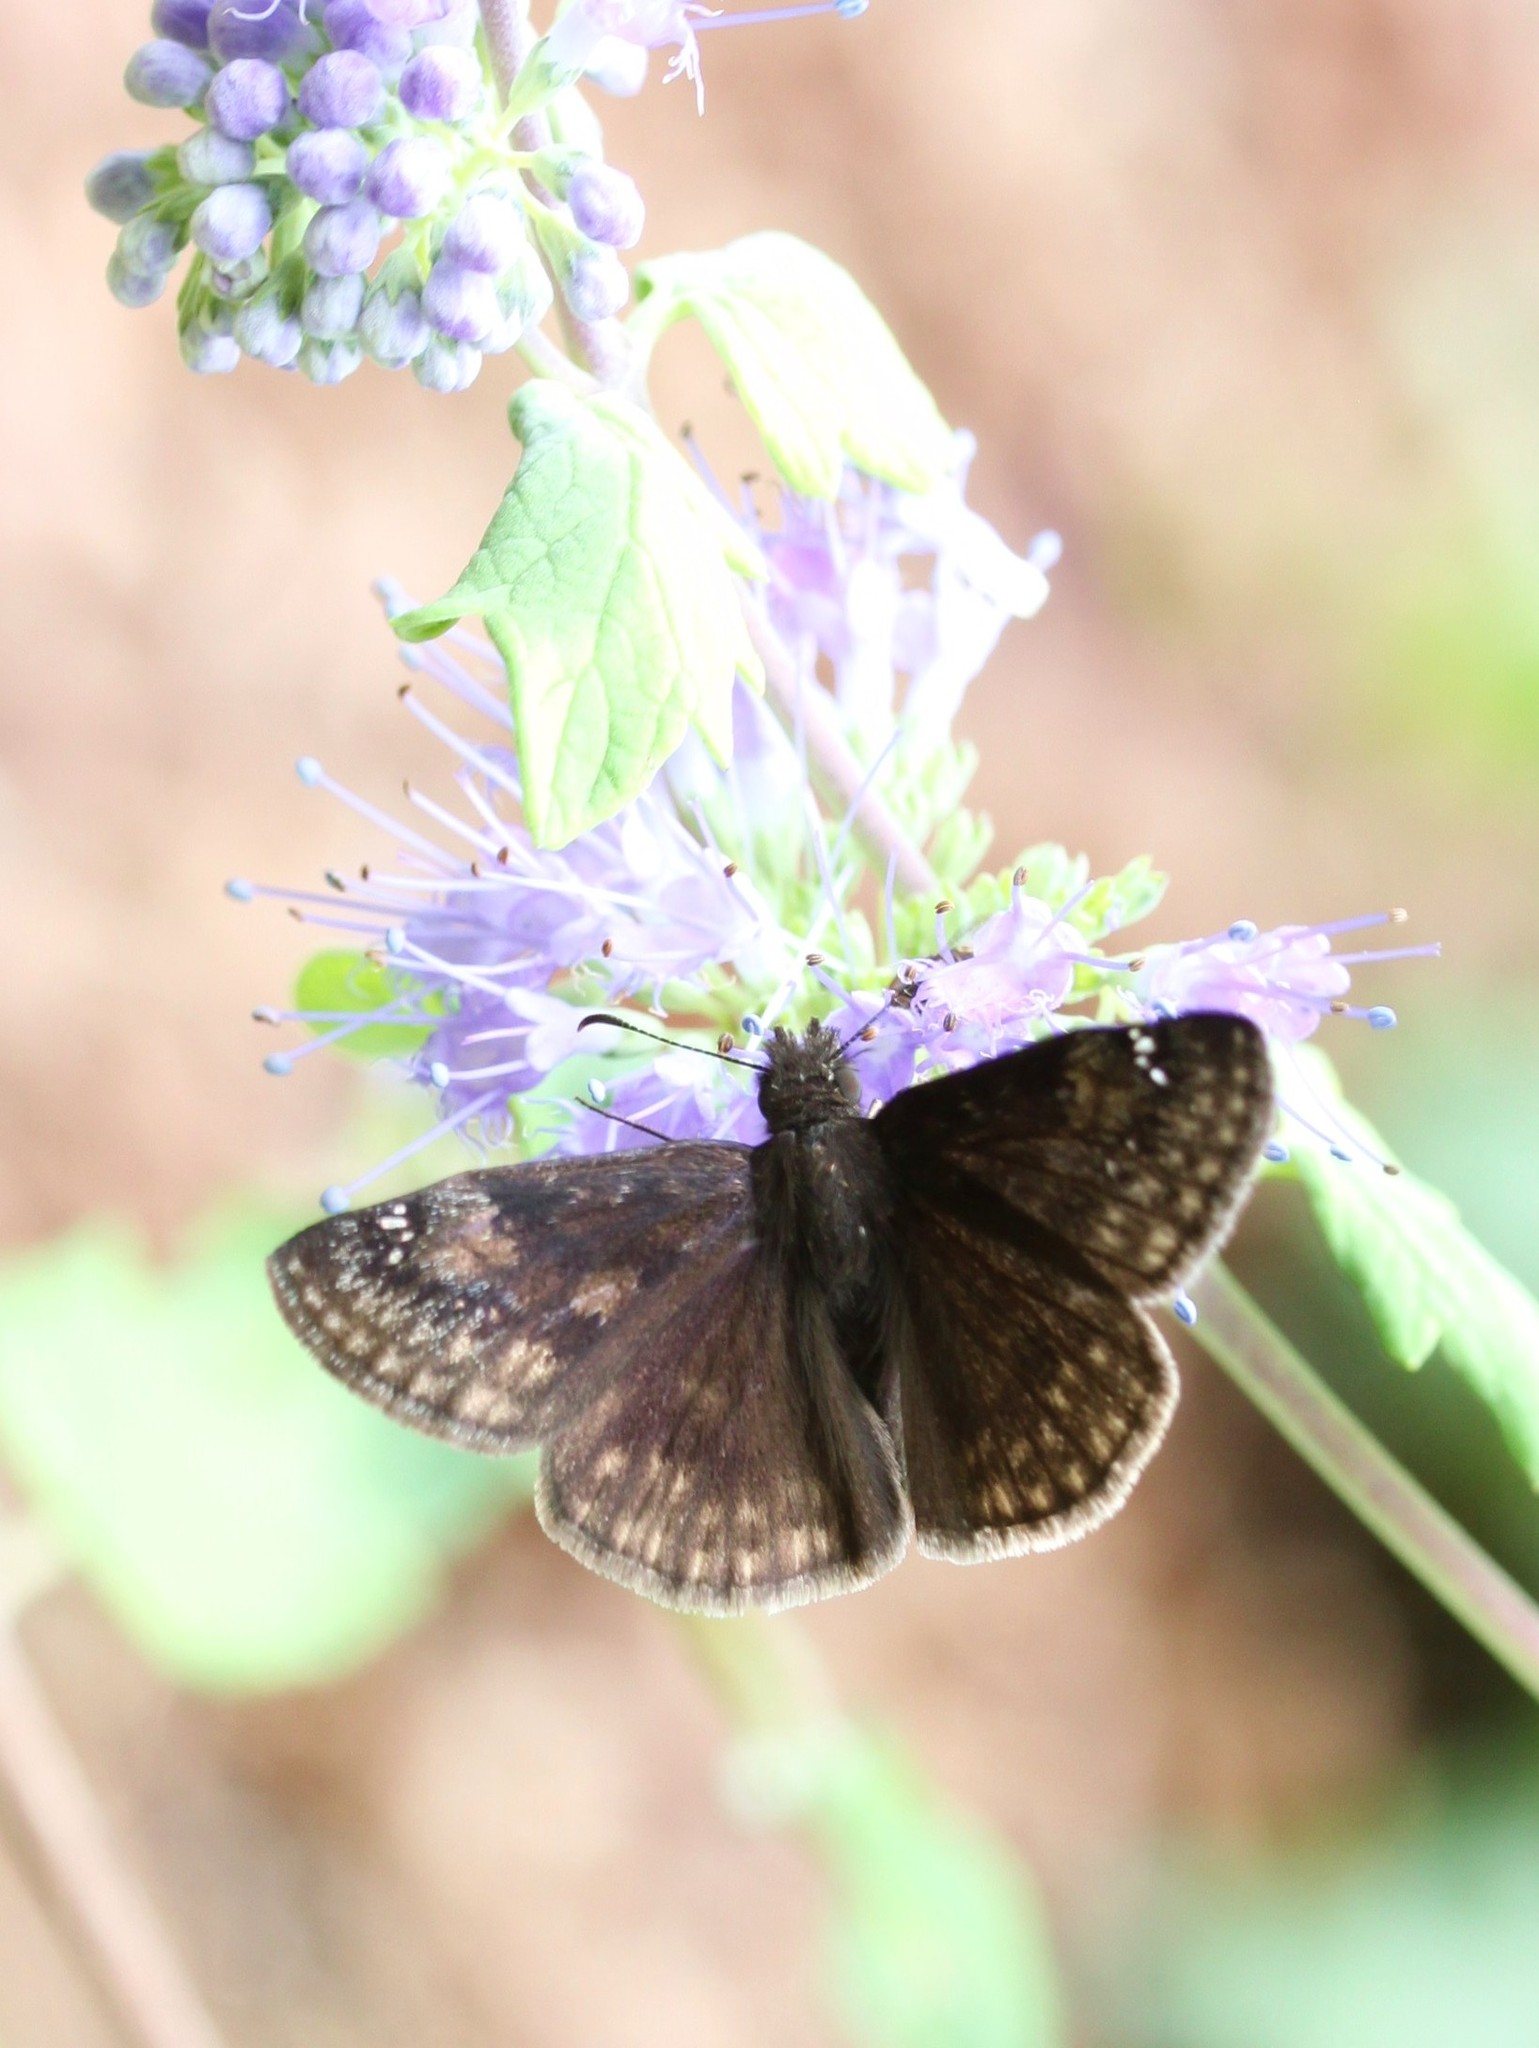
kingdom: Animalia
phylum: Arthropoda
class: Insecta
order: Lepidoptera
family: Hesperiidae
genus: Erynnis
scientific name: Erynnis baptisiae
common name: Wild indigo duskywing
